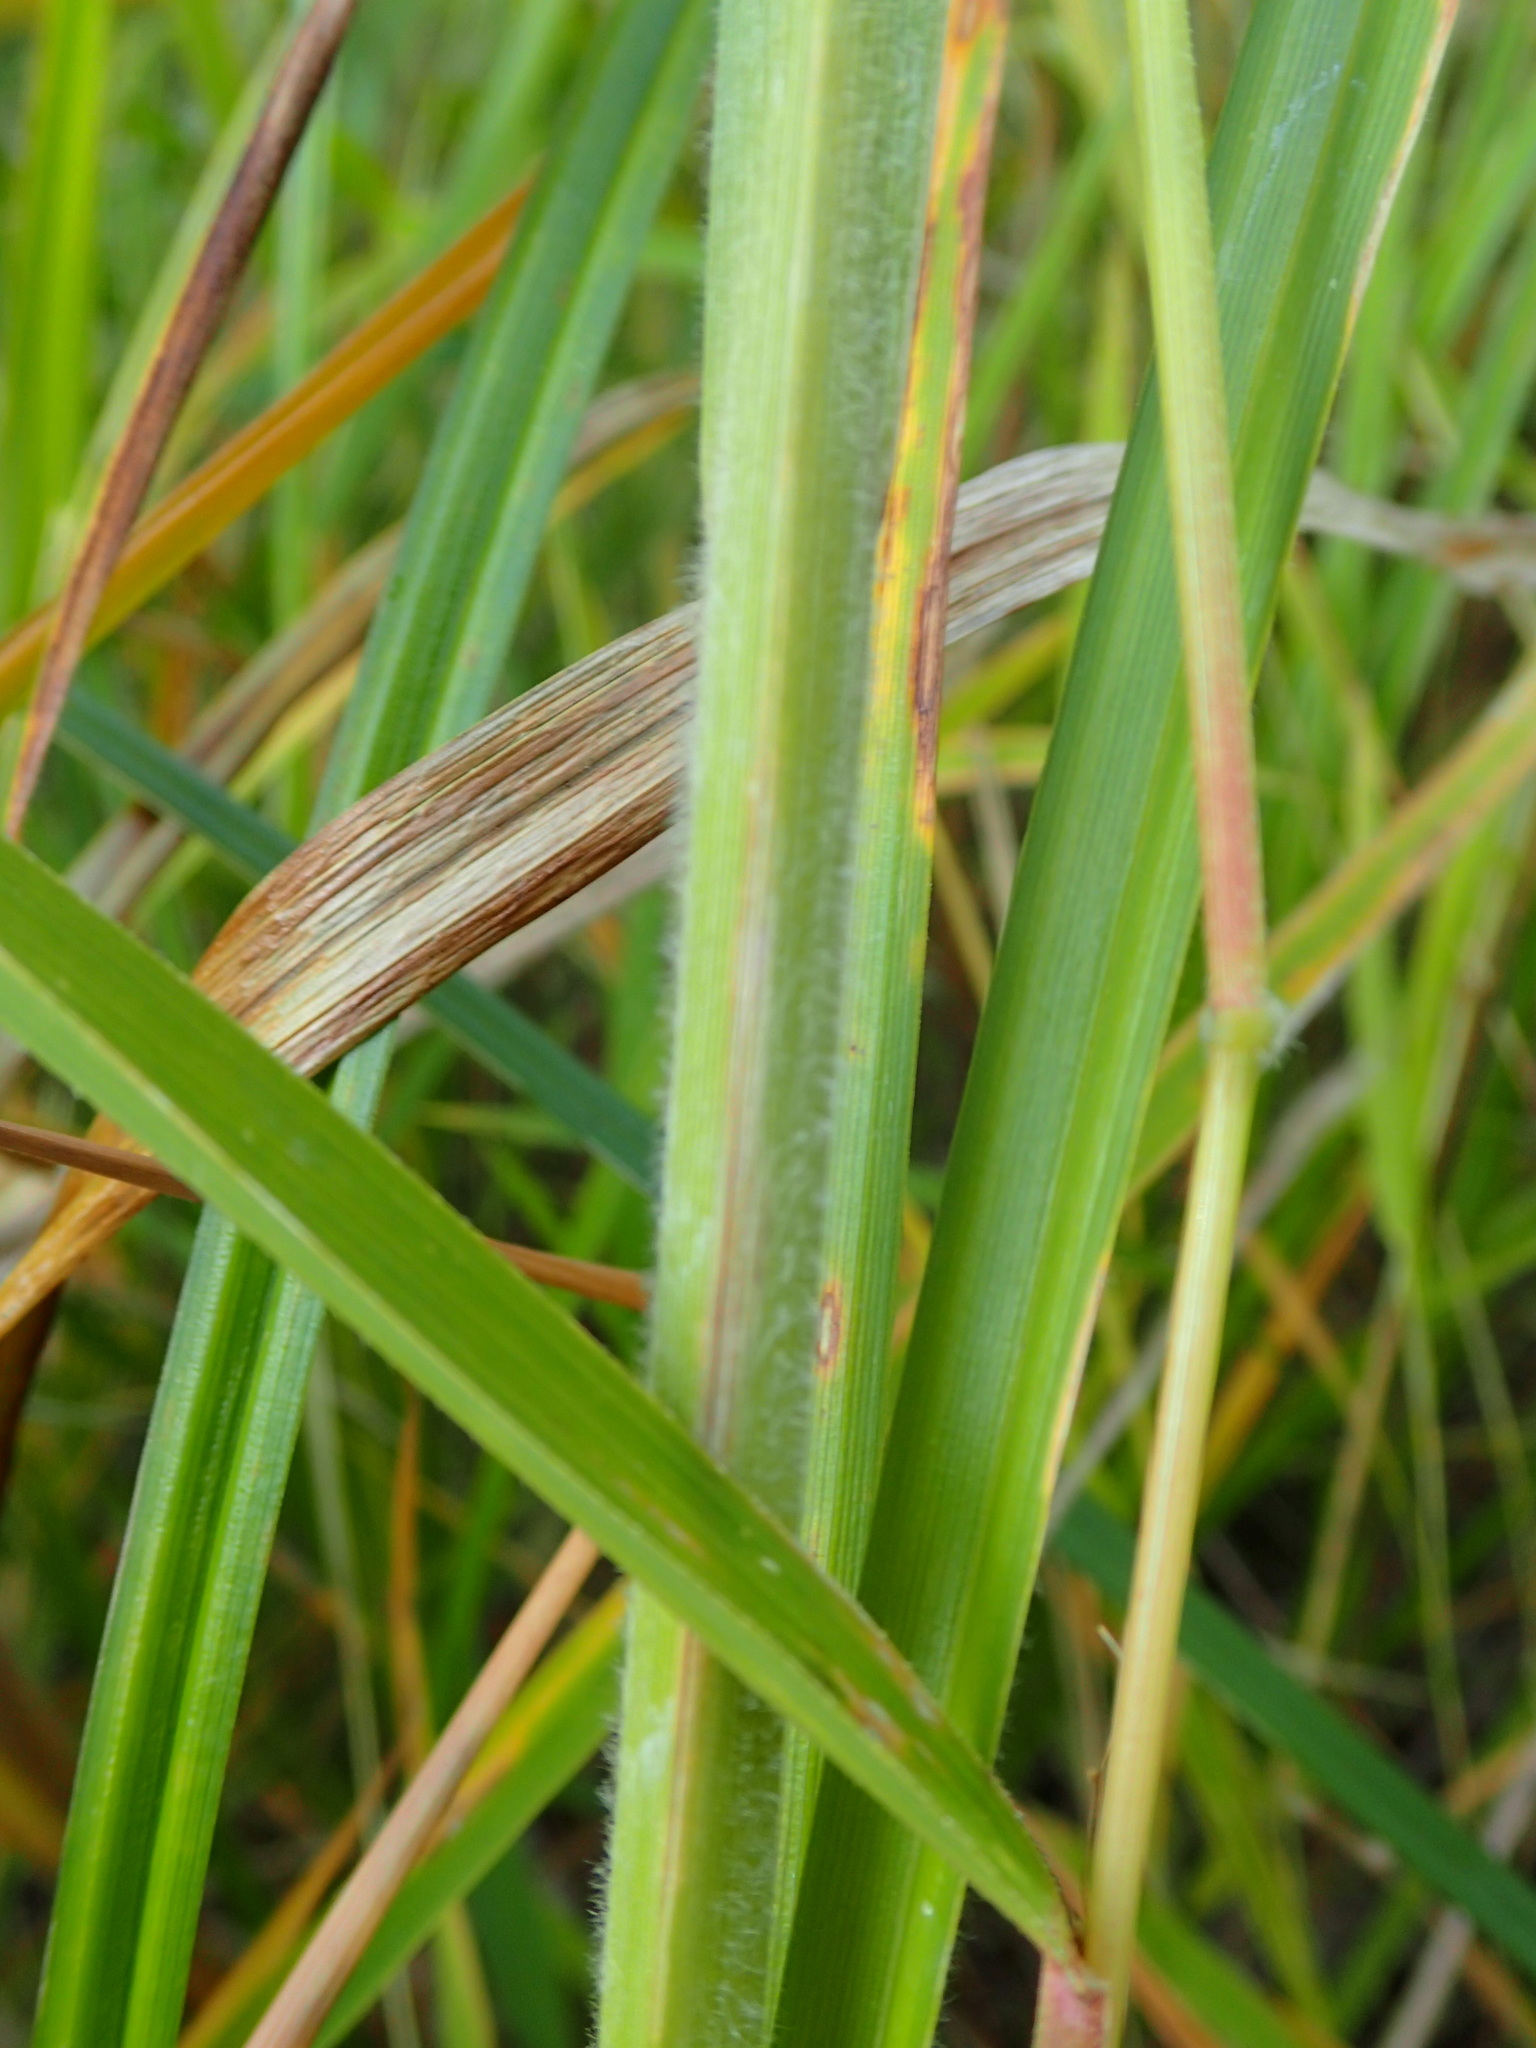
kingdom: Plantae
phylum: Tracheophyta
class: Liliopsida
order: Poales
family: Cyperaceae
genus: Carex
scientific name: Carex atherodes
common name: Wheat sedge
